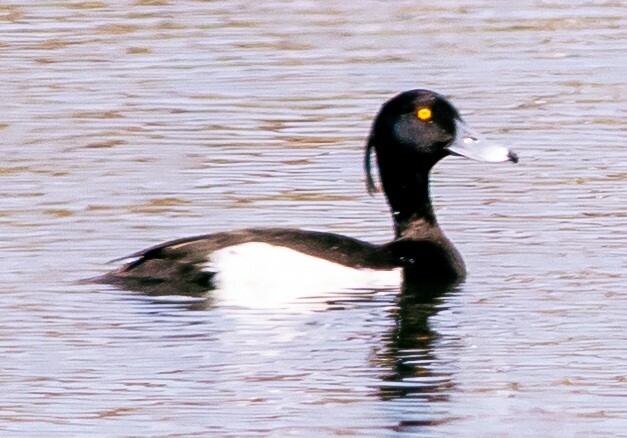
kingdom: Animalia
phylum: Chordata
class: Aves
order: Anseriformes
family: Anatidae
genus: Aythya
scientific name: Aythya fuligula
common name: Tufted duck
